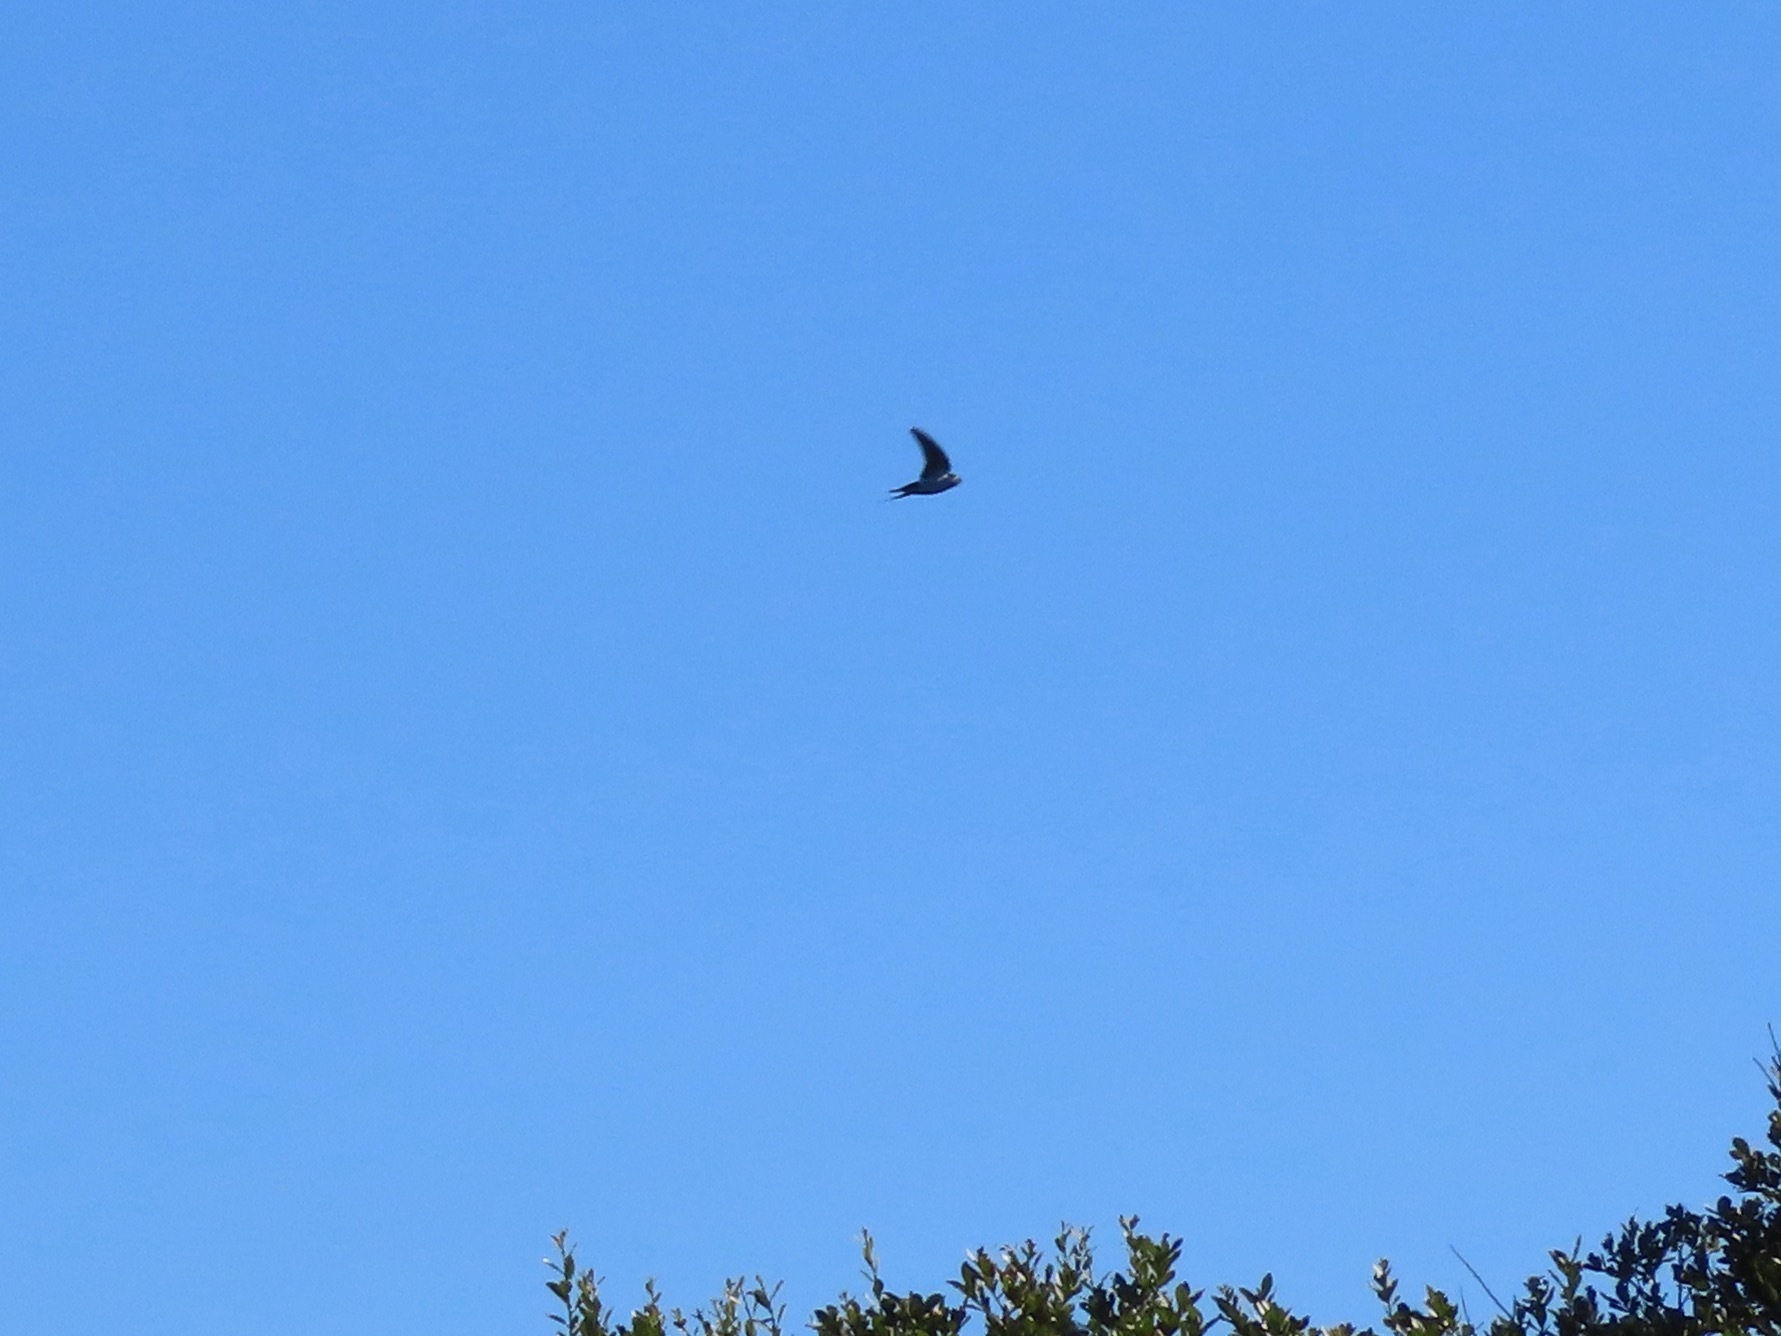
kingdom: Animalia
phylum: Chordata
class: Aves
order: Passeriformes
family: Hirundinidae
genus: Hirundo
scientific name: Hirundo rustica
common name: Barn swallow
